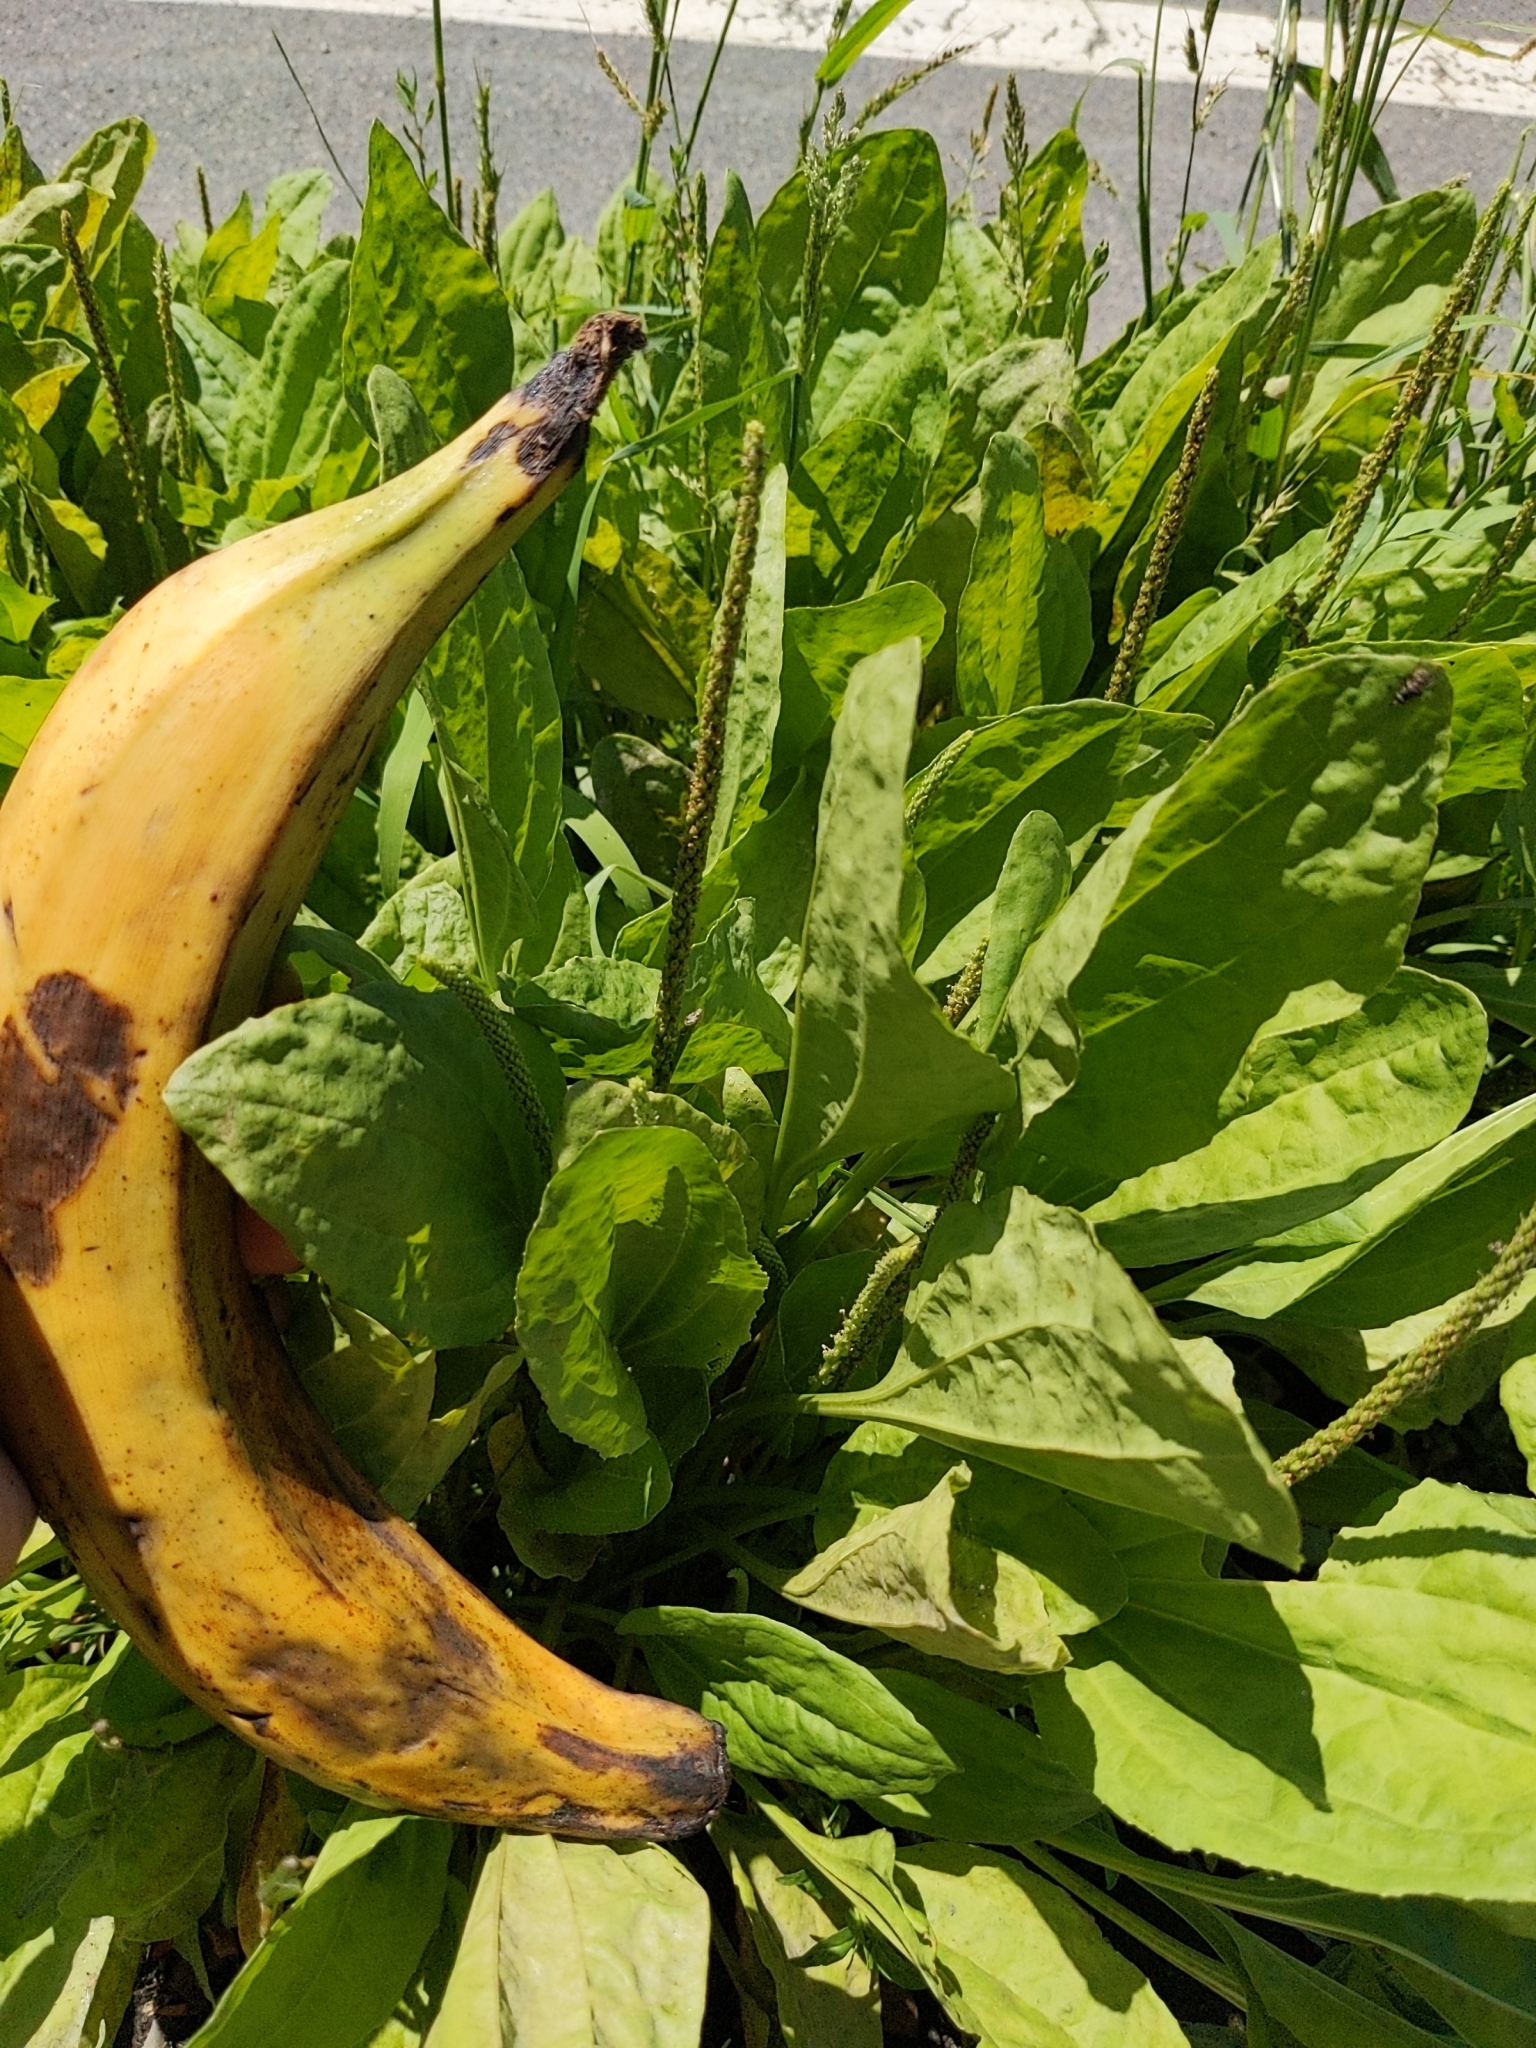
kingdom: Plantae
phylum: Tracheophyta
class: Magnoliopsida
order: Lamiales
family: Plantaginaceae
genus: Plantago
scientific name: Plantago major
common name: Common plantain
